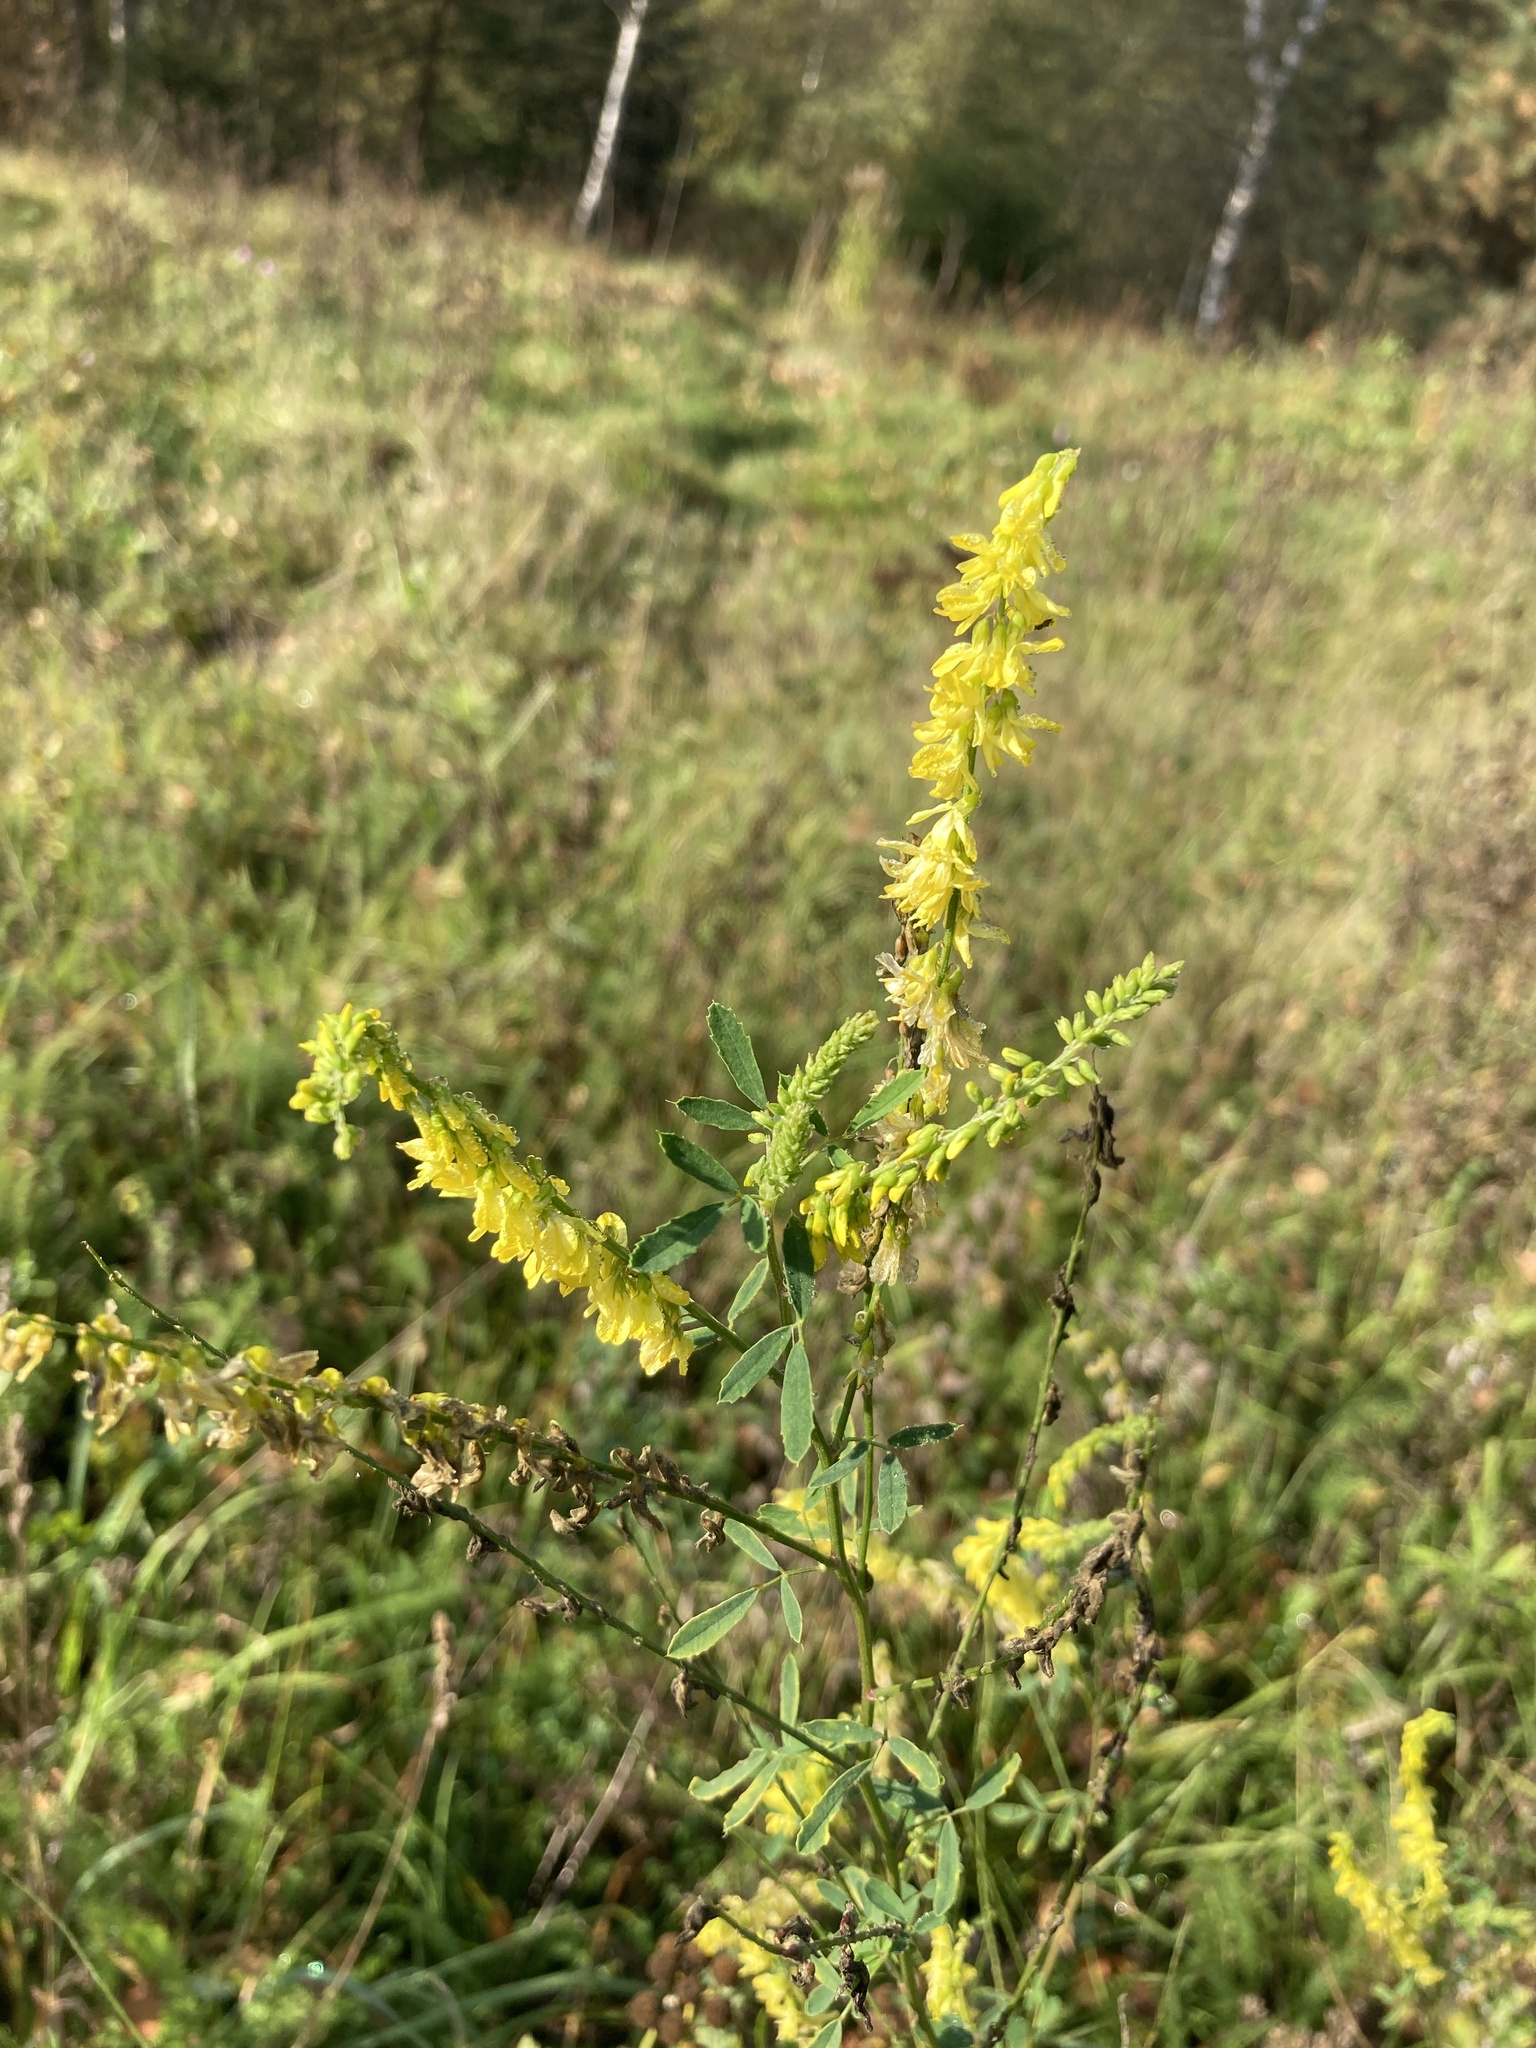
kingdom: Plantae
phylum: Tracheophyta
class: Magnoliopsida
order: Fabales
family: Fabaceae
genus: Melilotus
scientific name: Melilotus officinalis
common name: Sweetclover
